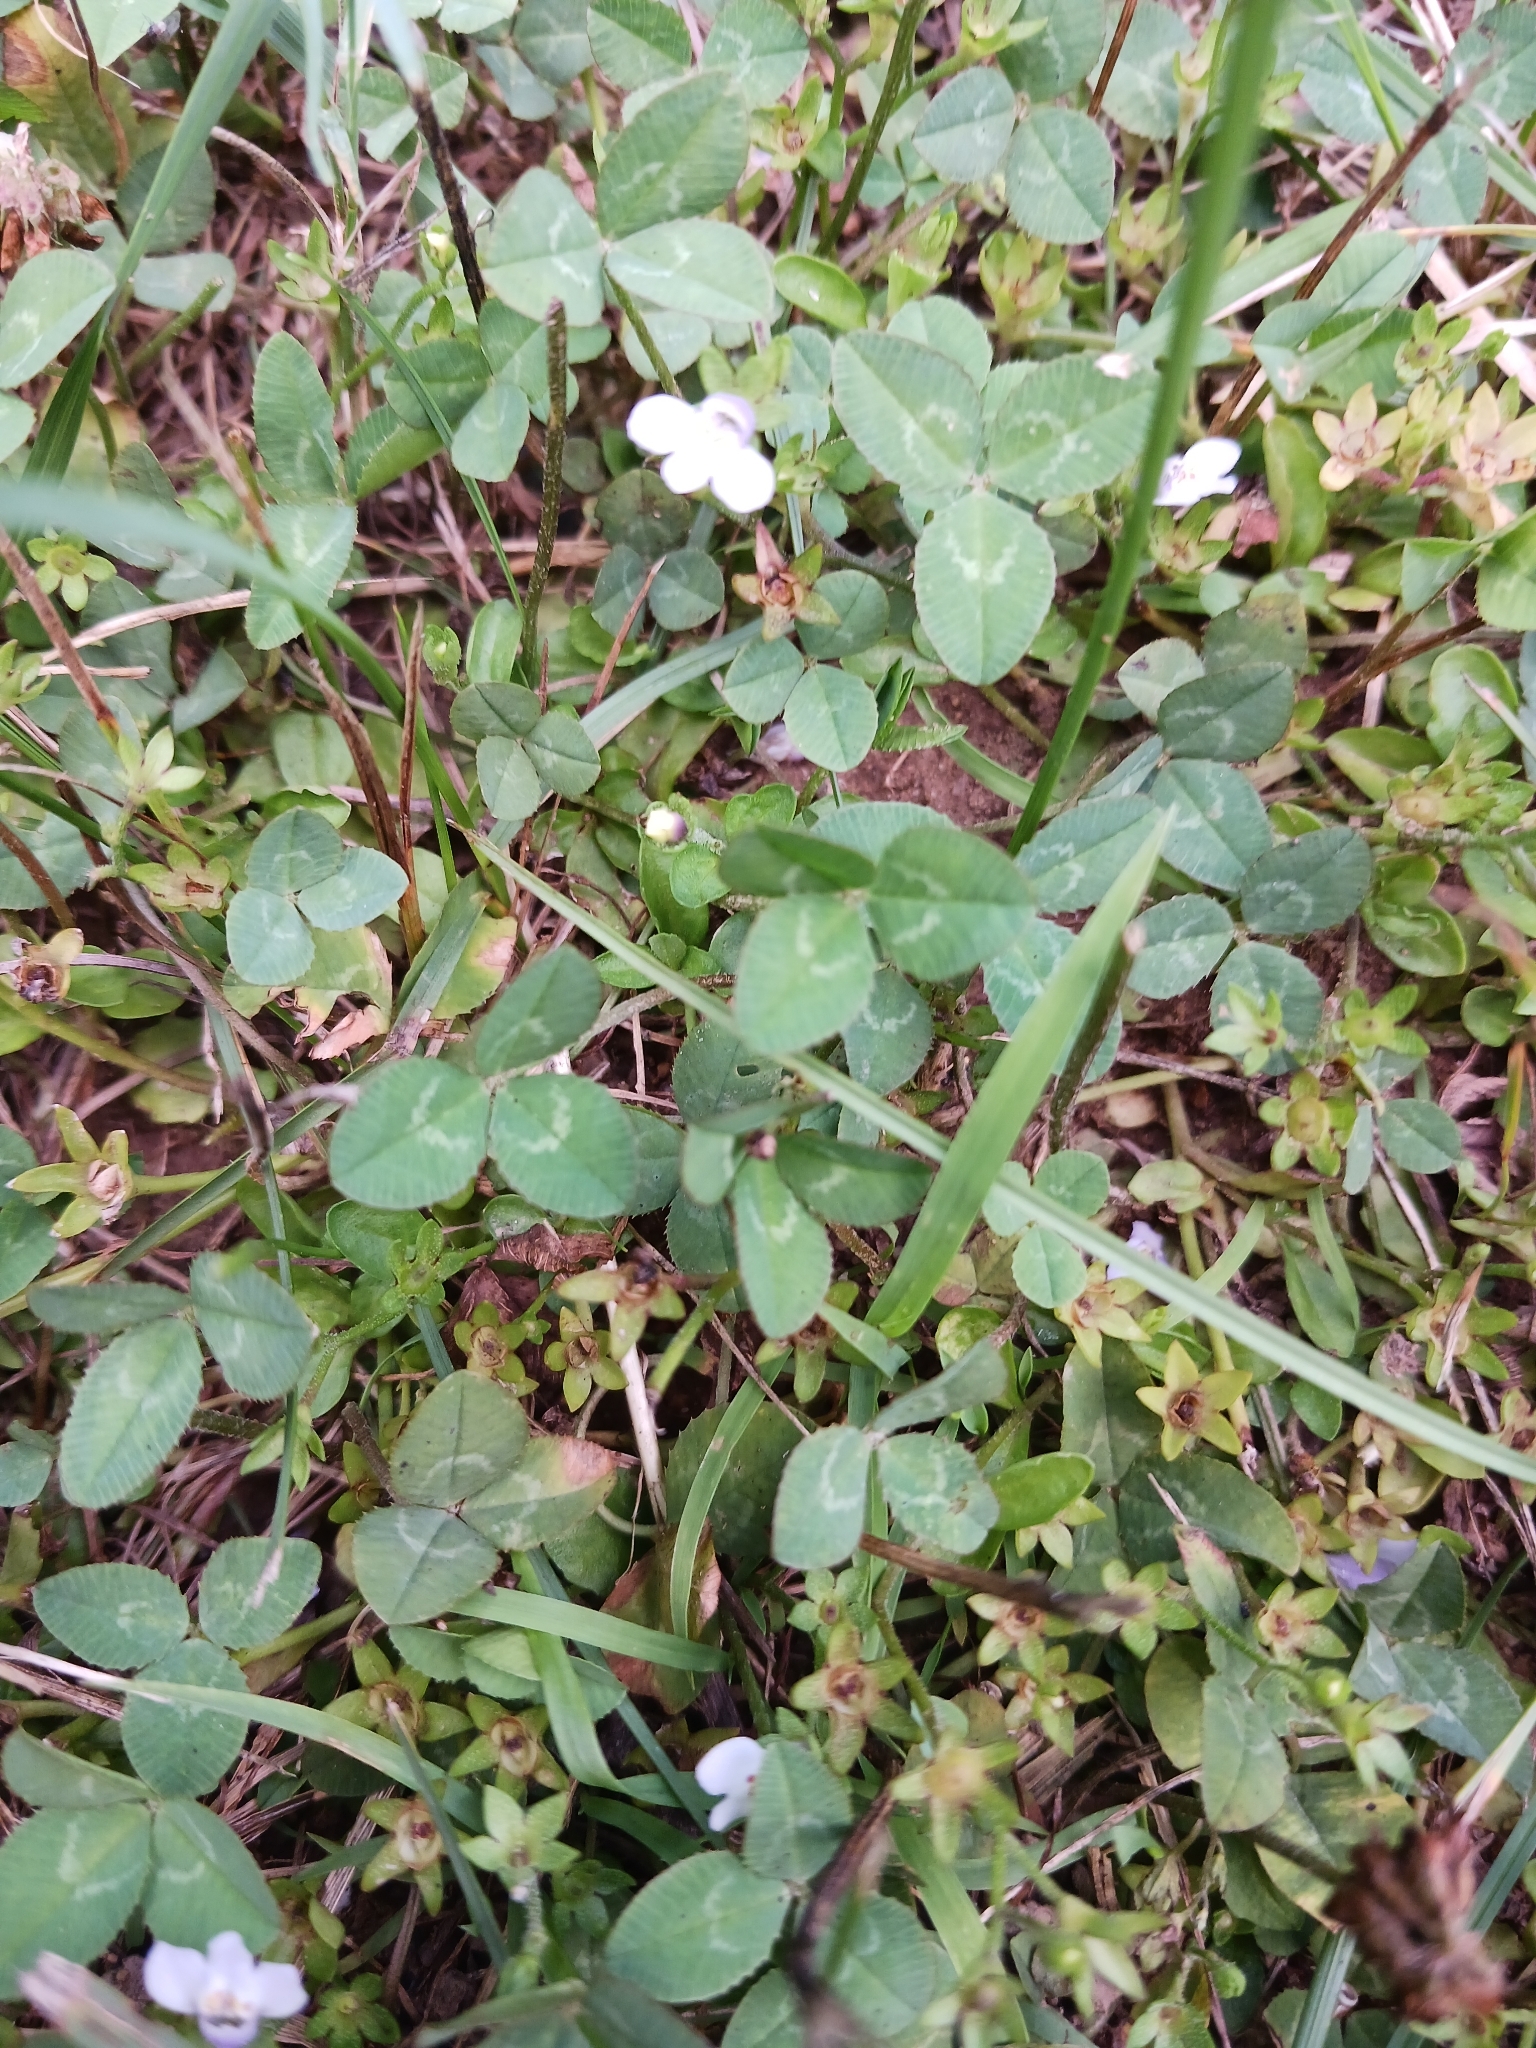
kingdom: Plantae
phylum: Tracheophyta
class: Magnoliopsida
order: Fabales
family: Fabaceae
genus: Trifolium
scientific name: Trifolium repens
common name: White clover
